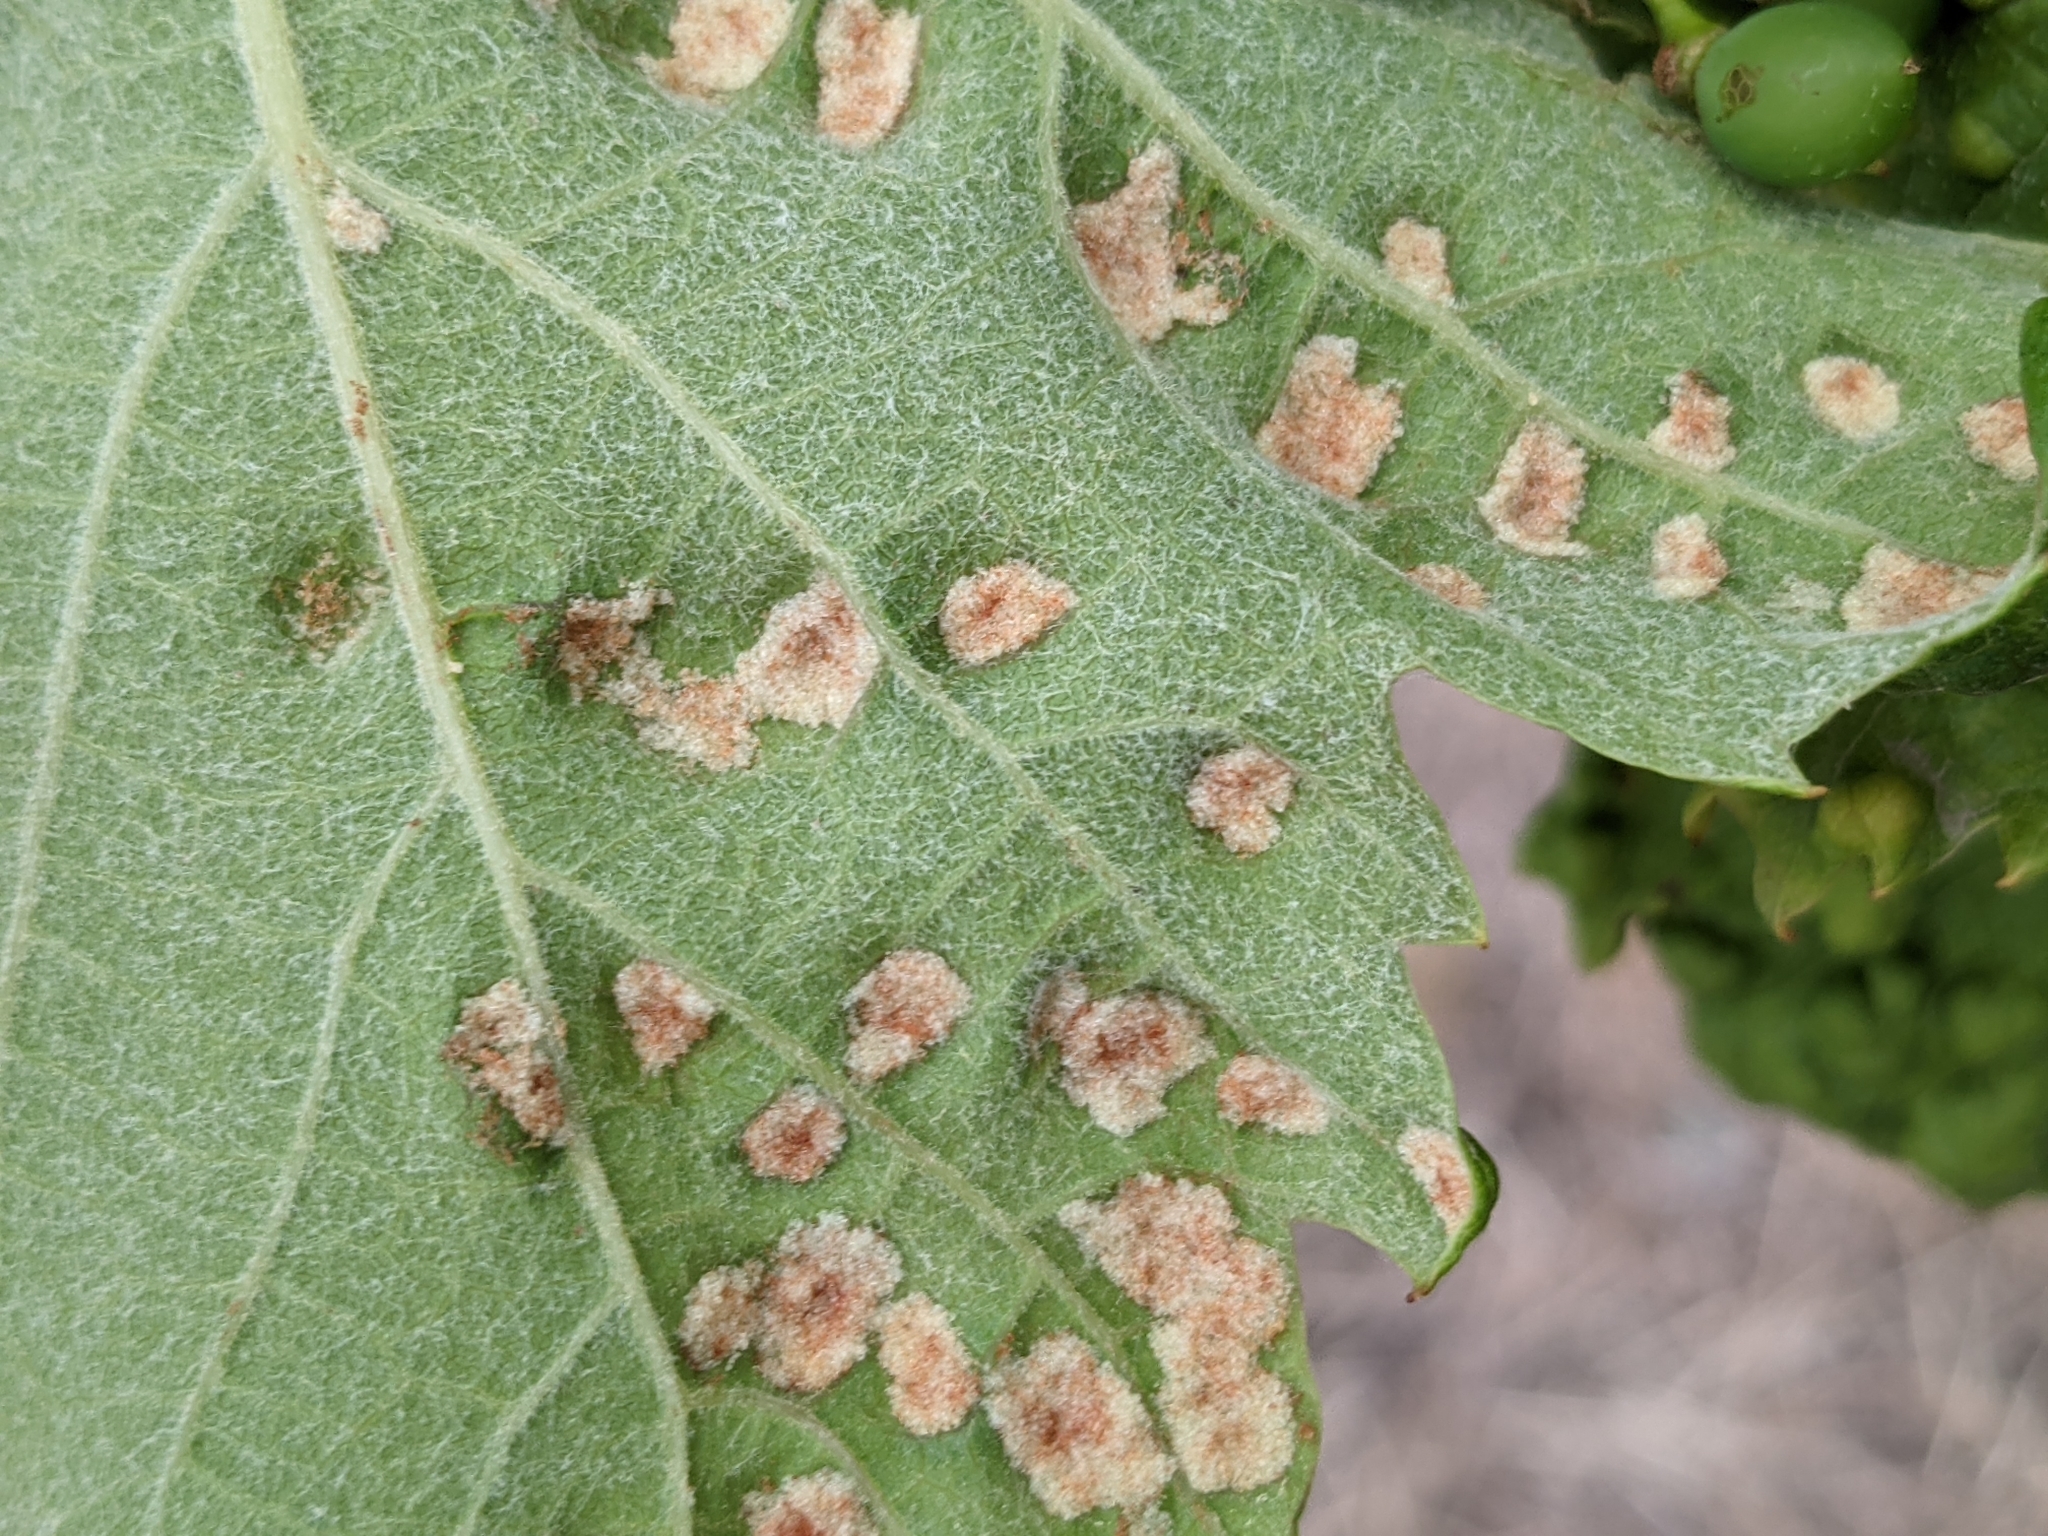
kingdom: Animalia
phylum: Arthropoda
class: Arachnida
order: Trombidiformes
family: Eriophyidae
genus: Colomerus
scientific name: Colomerus vitis
